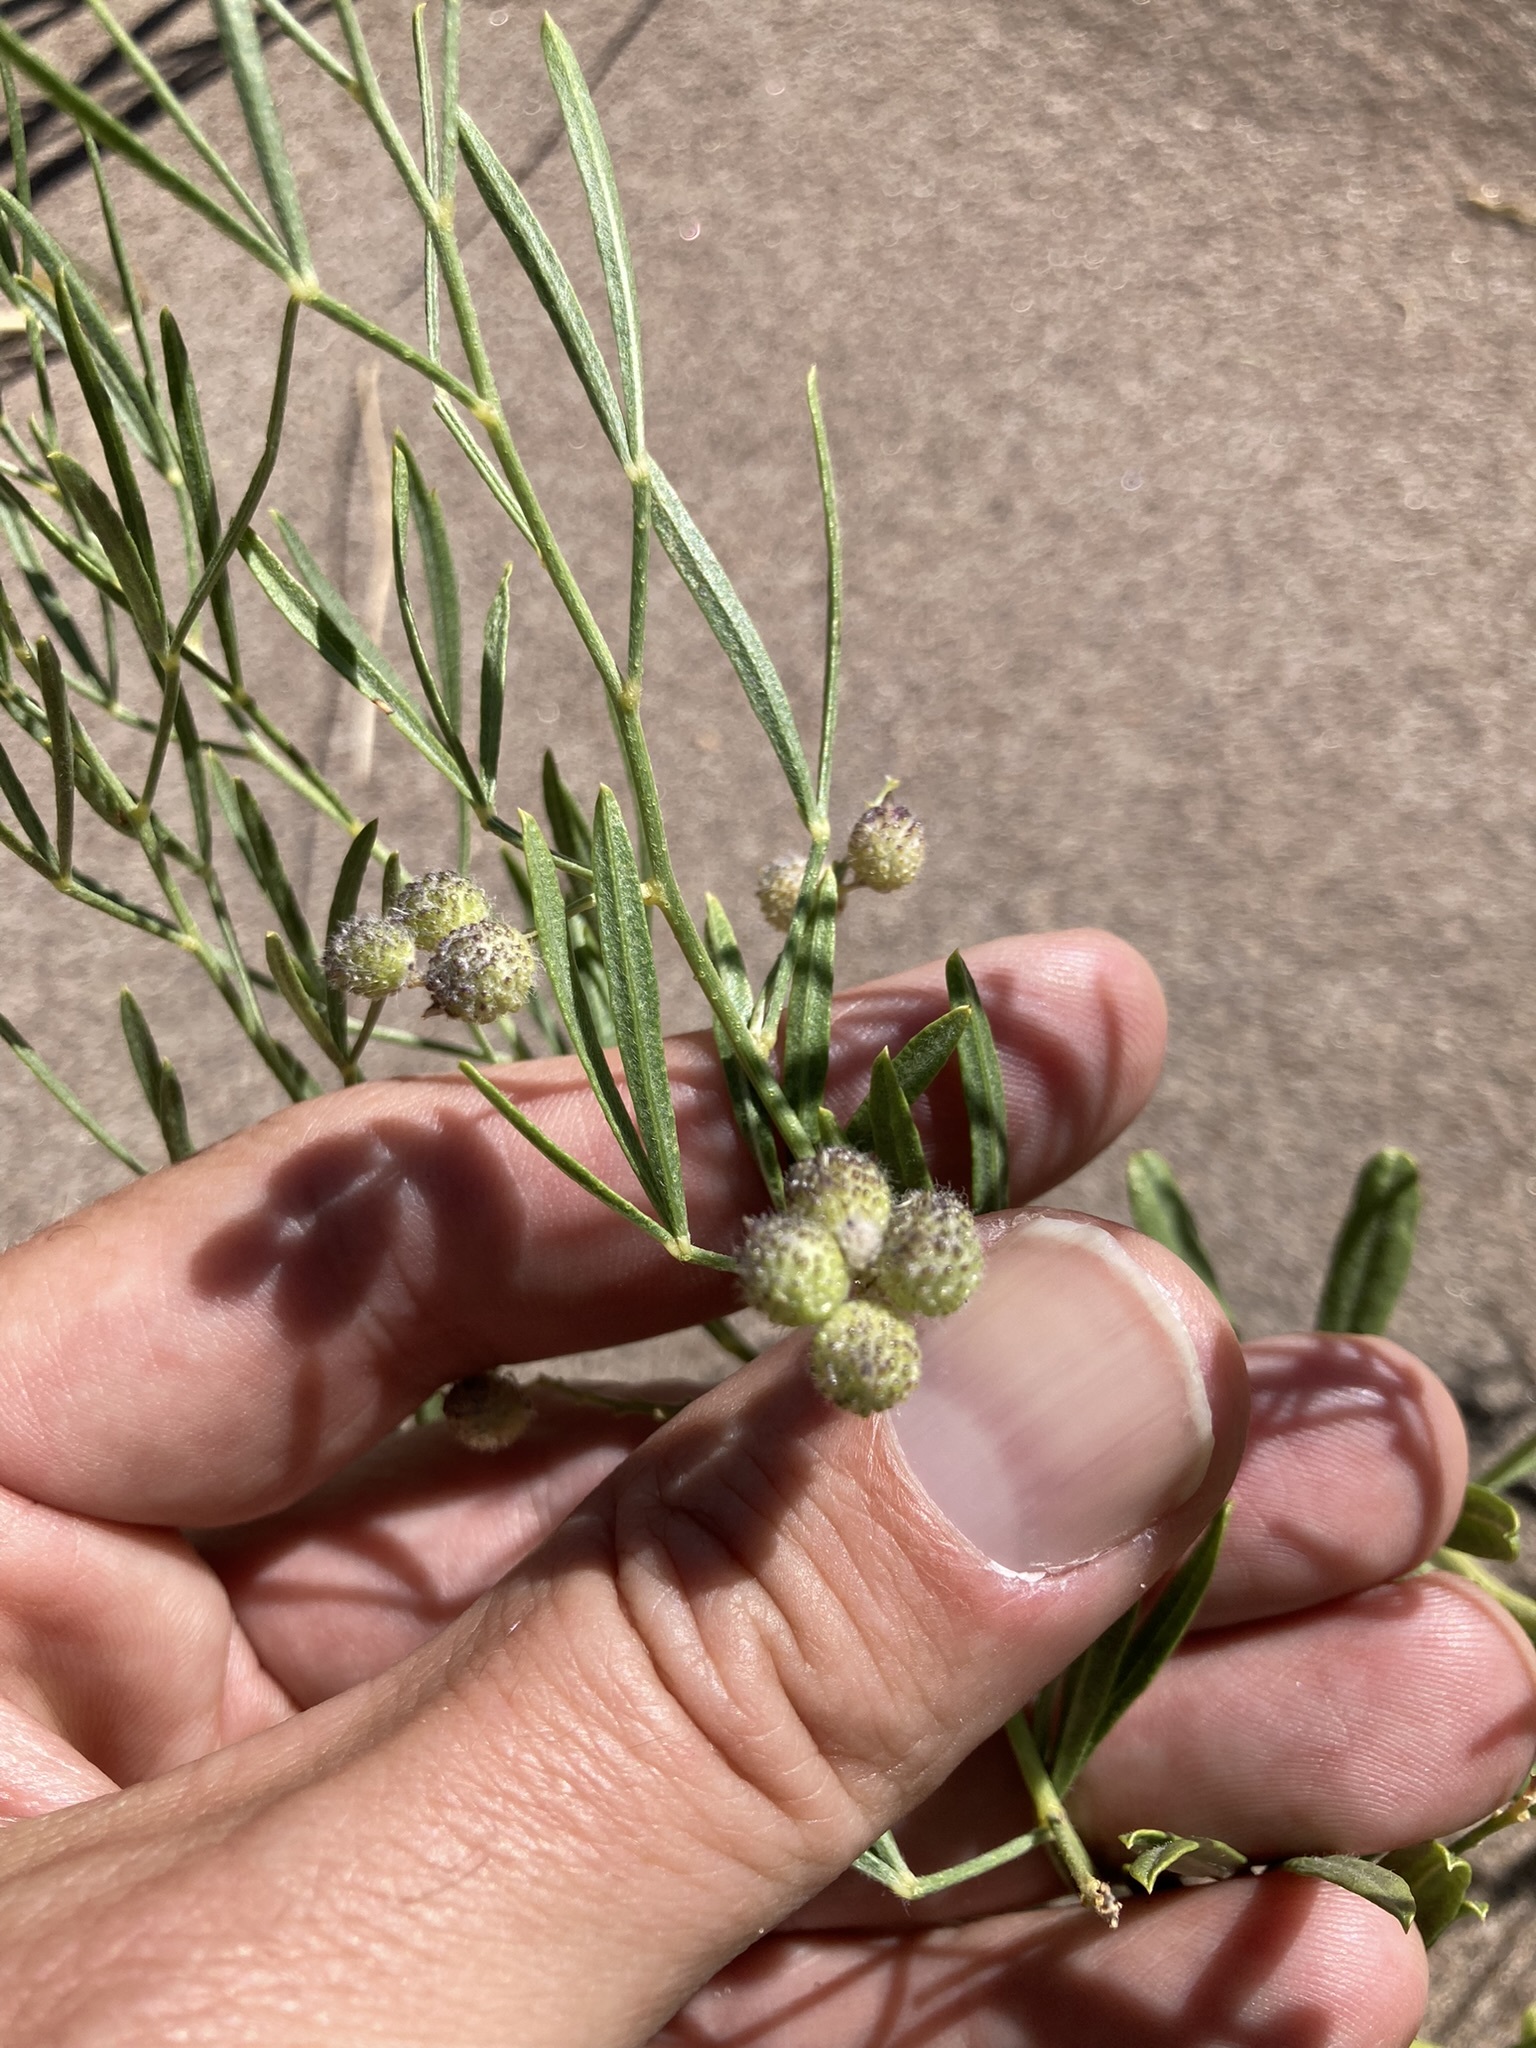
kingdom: Plantae
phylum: Tracheophyta
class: Magnoliopsida
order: Fabales
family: Fabaceae
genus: Ladeania
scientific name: Ladeania lanceolata
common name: Dune scurf-pea
